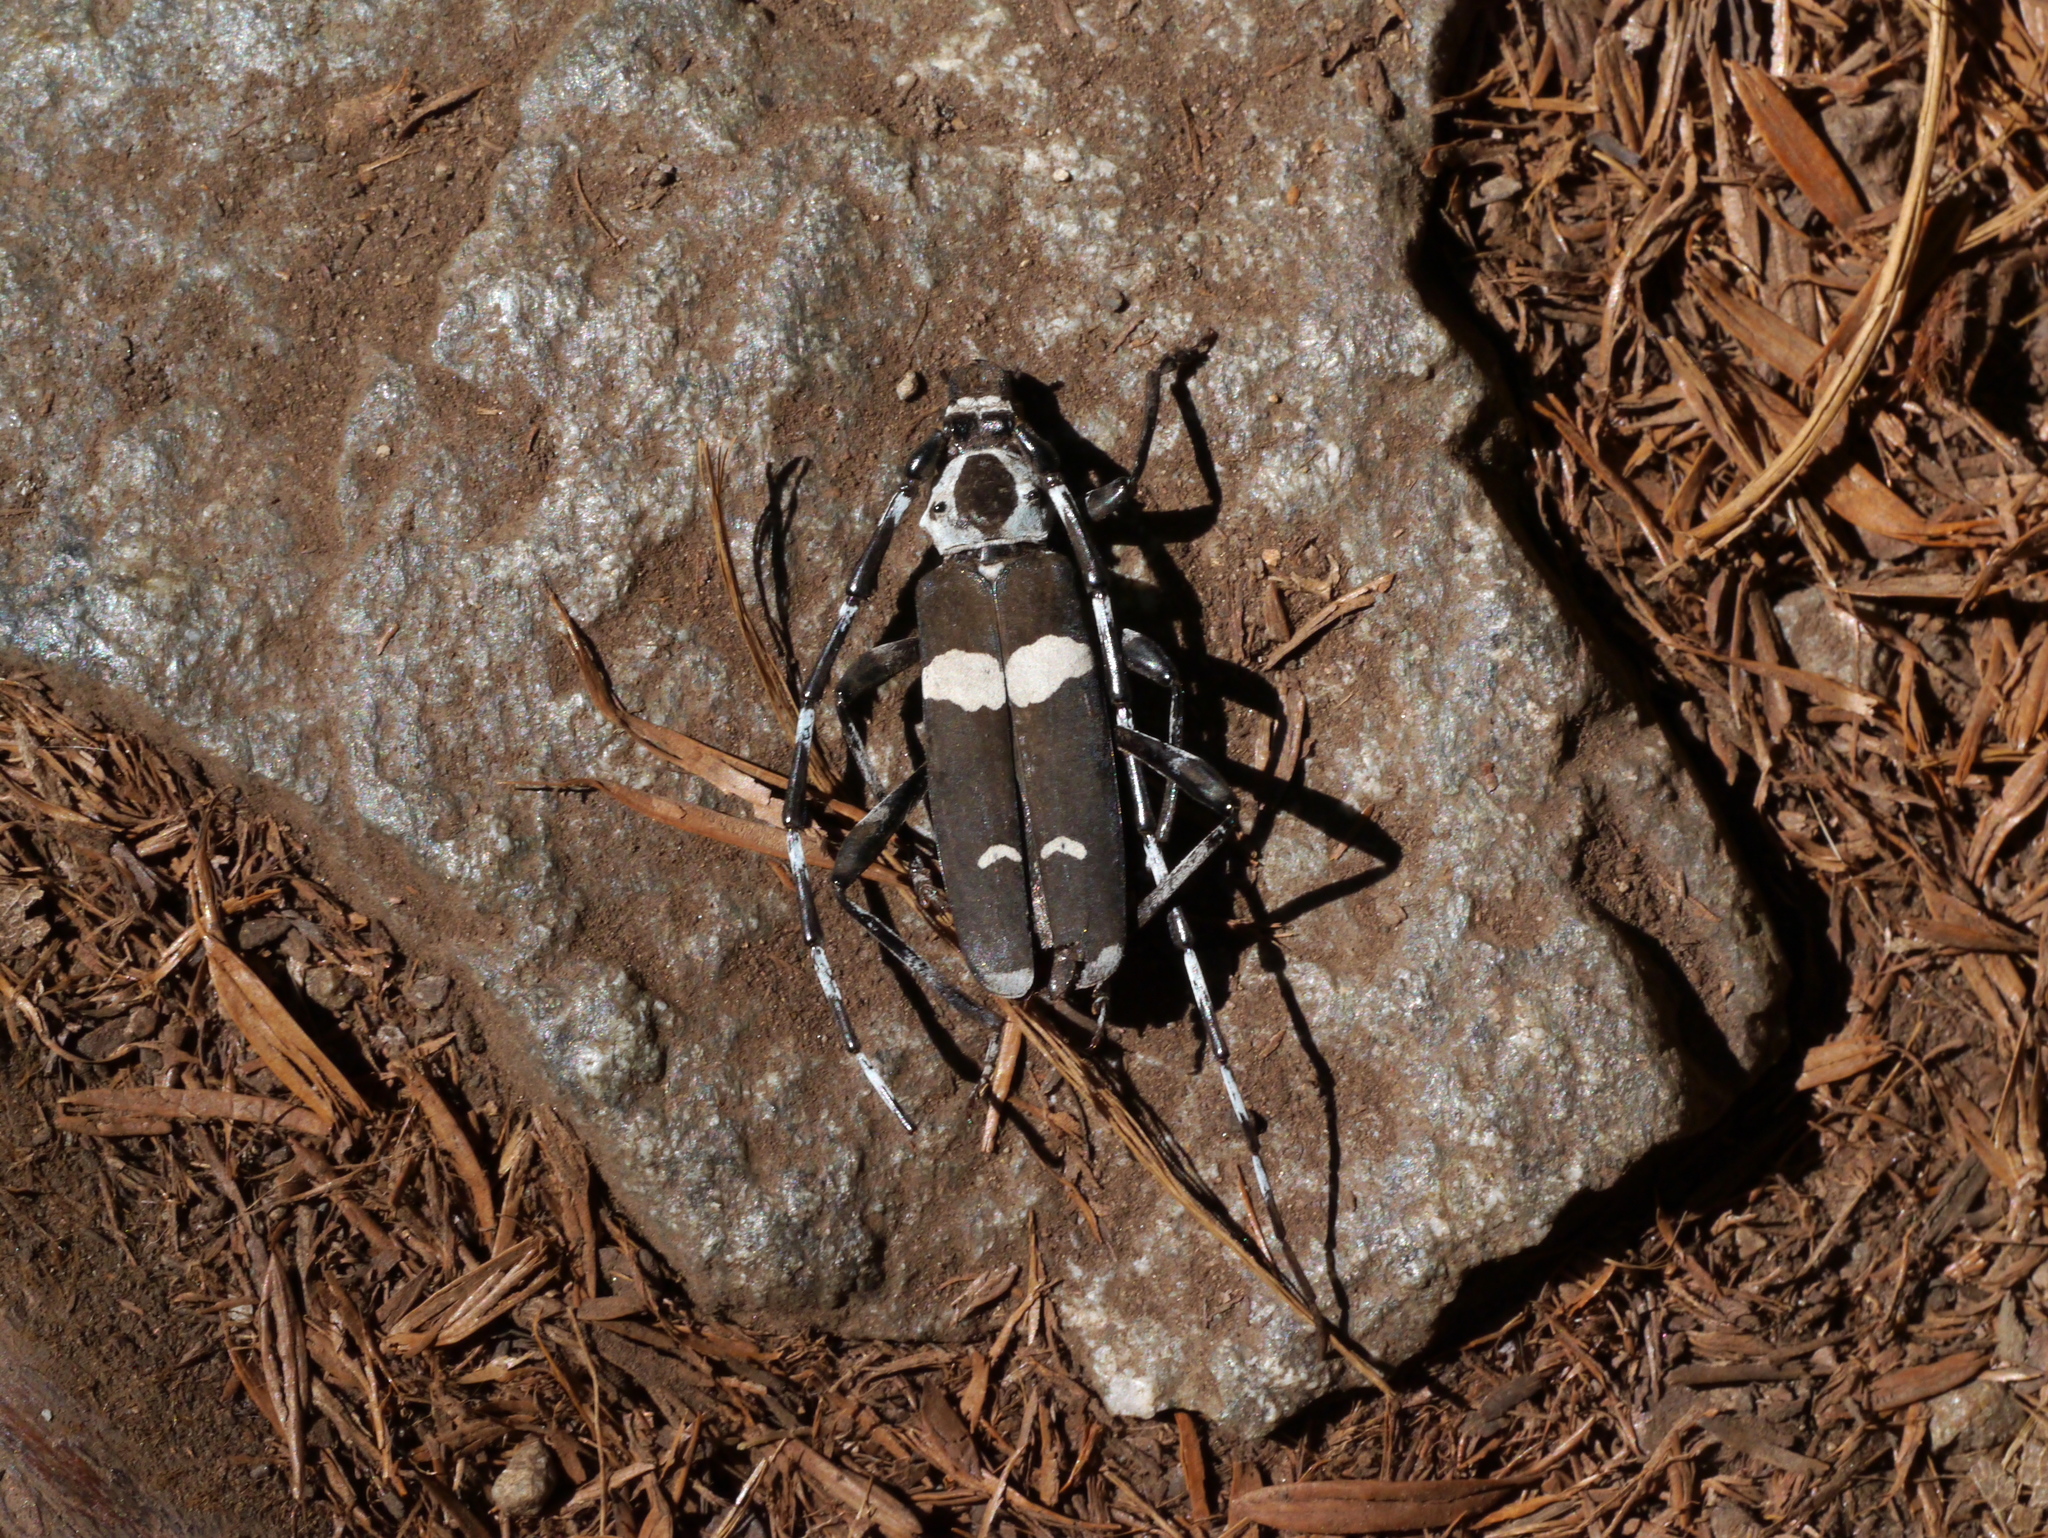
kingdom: Animalia
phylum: Arthropoda
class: Insecta
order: Coleoptera
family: Cerambycidae
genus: Rosalia
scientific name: Rosalia funebris
